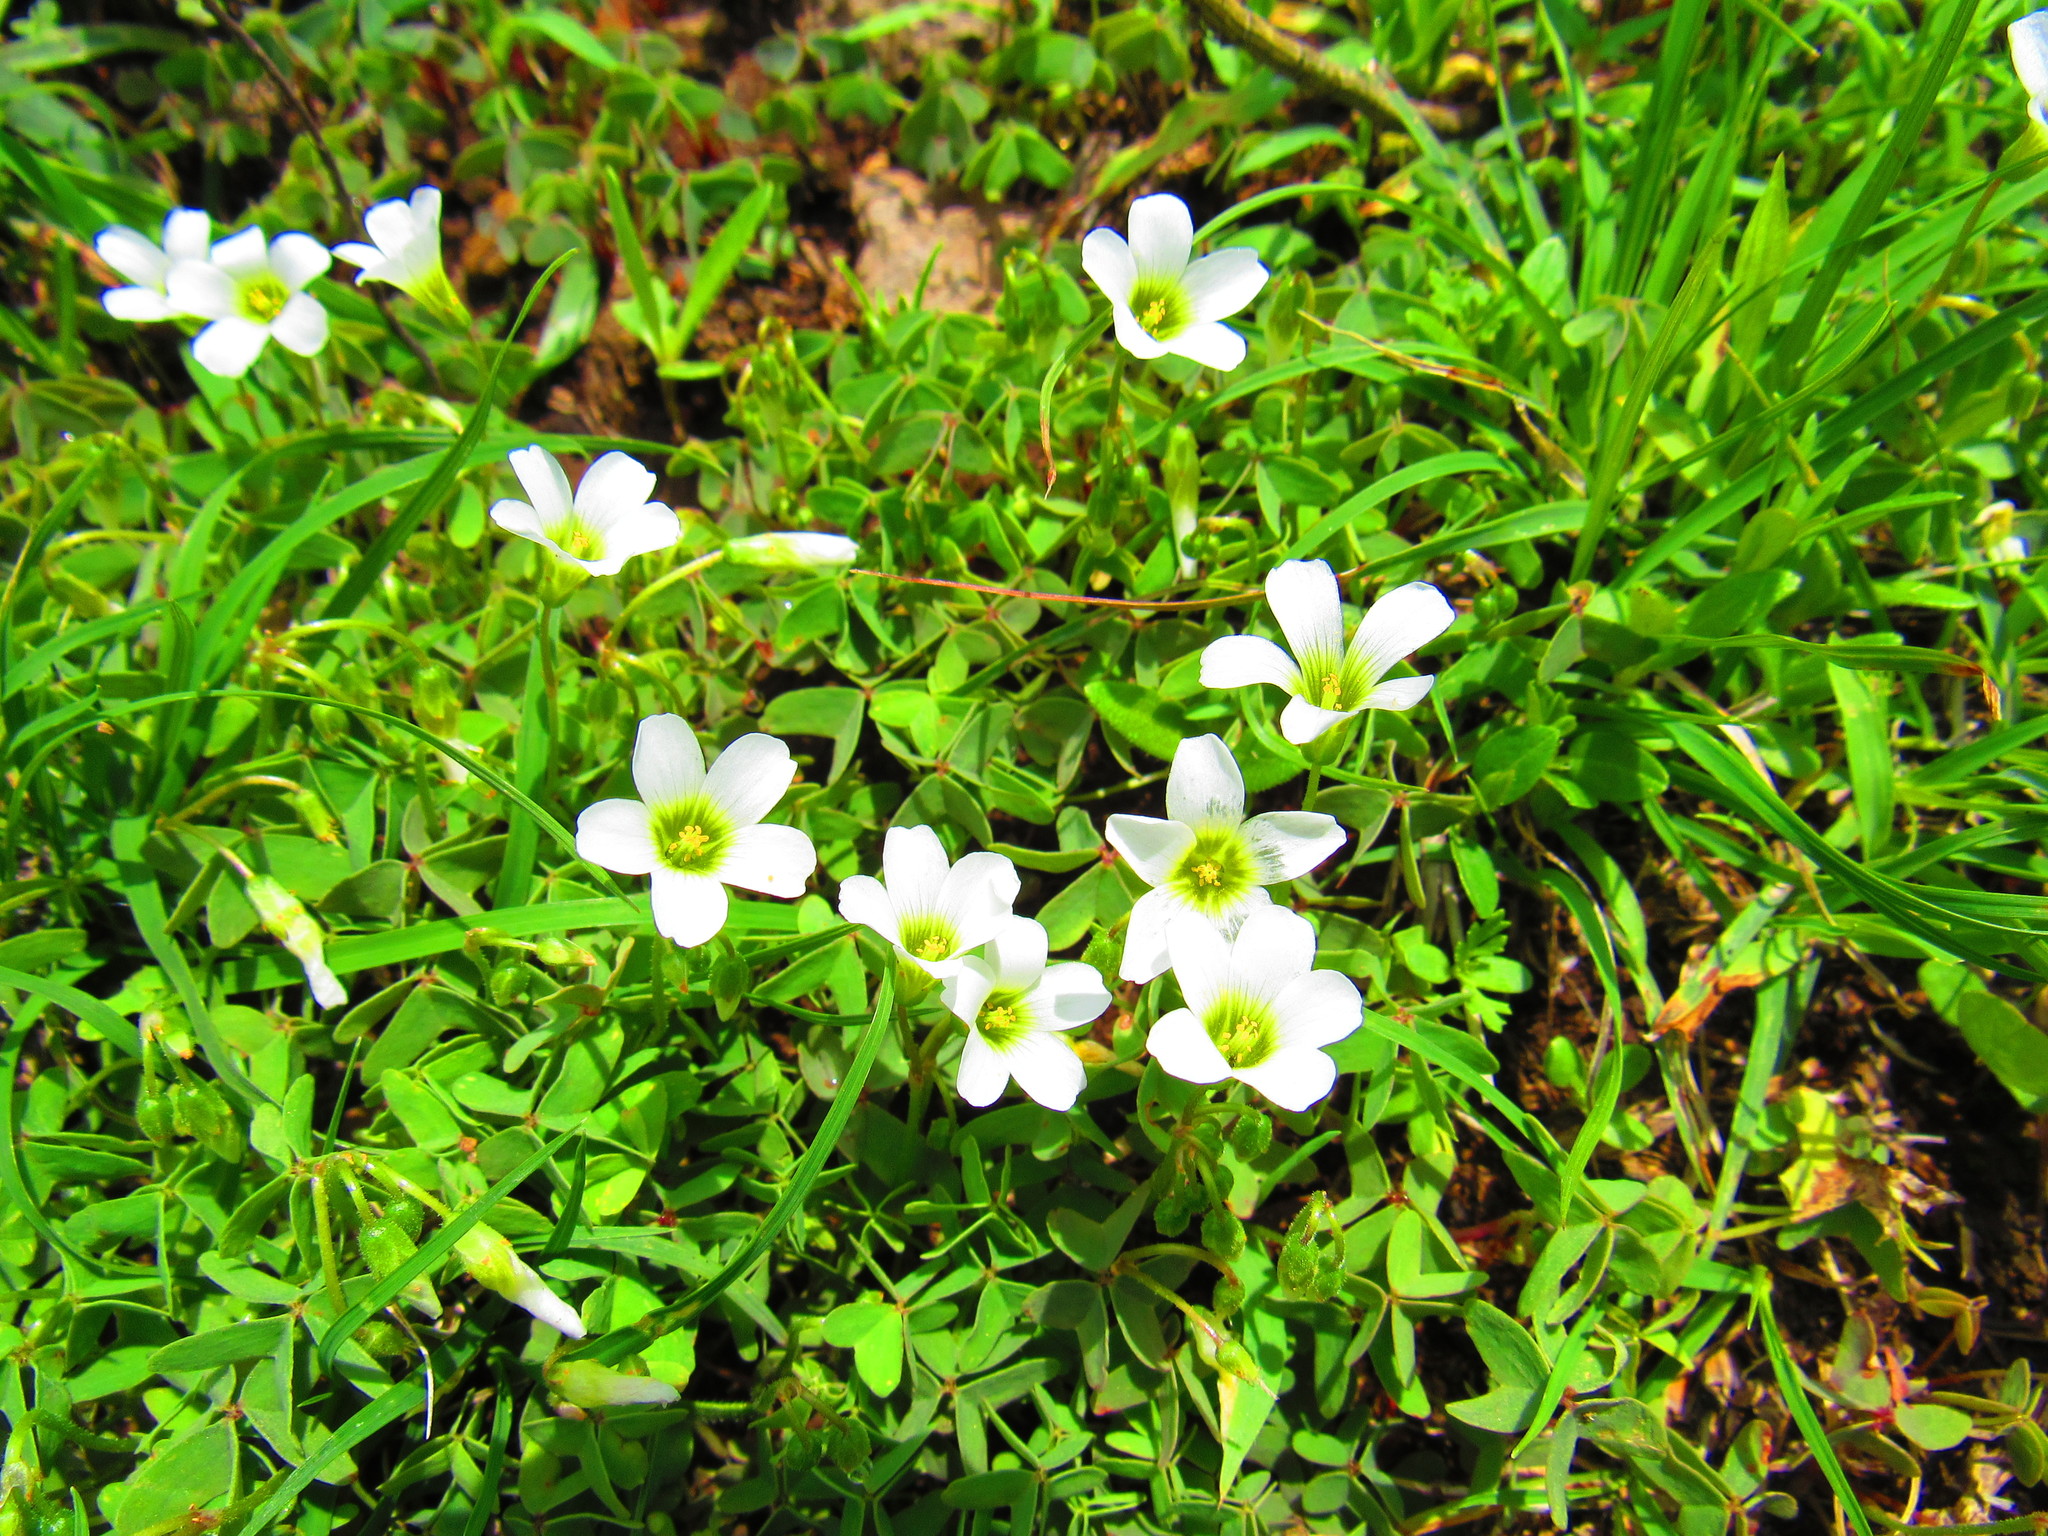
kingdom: Plantae
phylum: Tracheophyta
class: Magnoliopsida
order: Oxalidales
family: Oxalidaceae
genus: Oxalis
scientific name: Oxalis alpina
